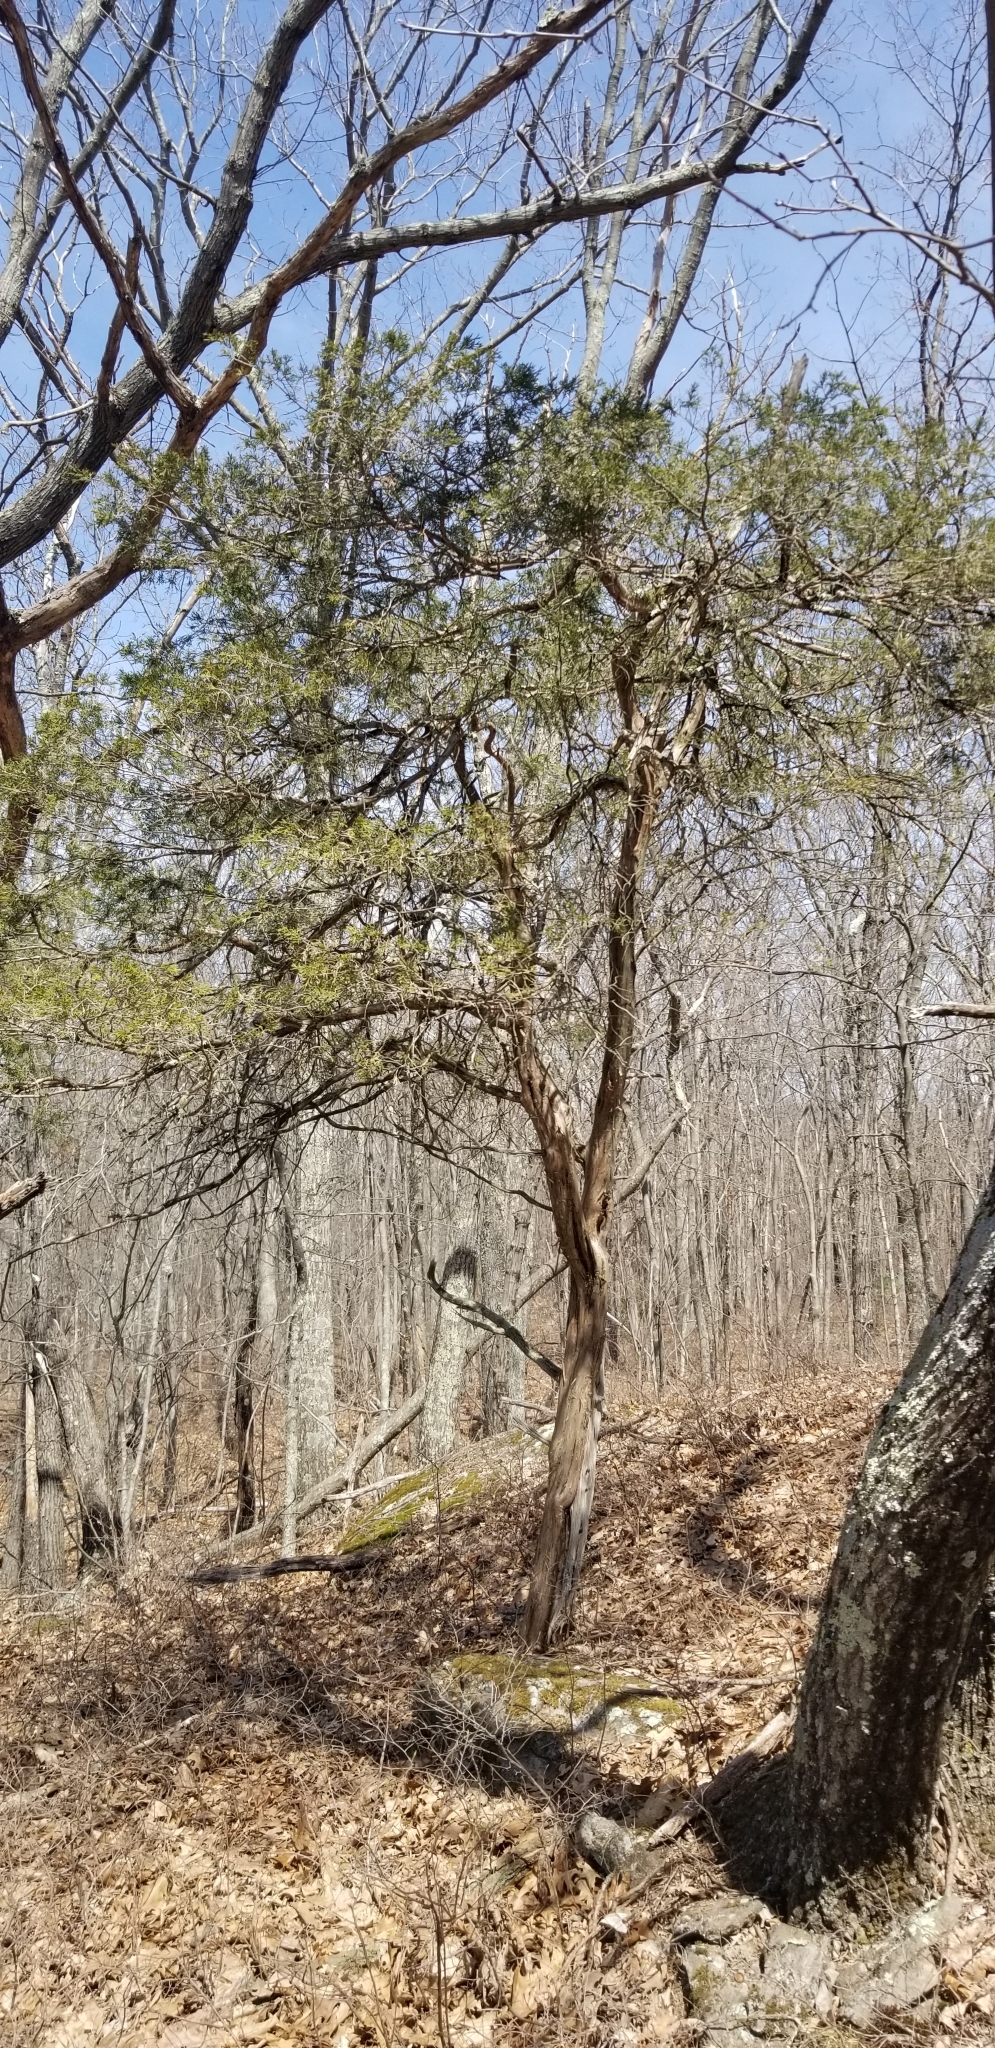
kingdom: Plantae
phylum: Tracheophyta
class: Pinopsida
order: Pinales
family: Cupressaceae
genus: Juniperus
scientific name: Juniperus virginiana
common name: Red juniper
